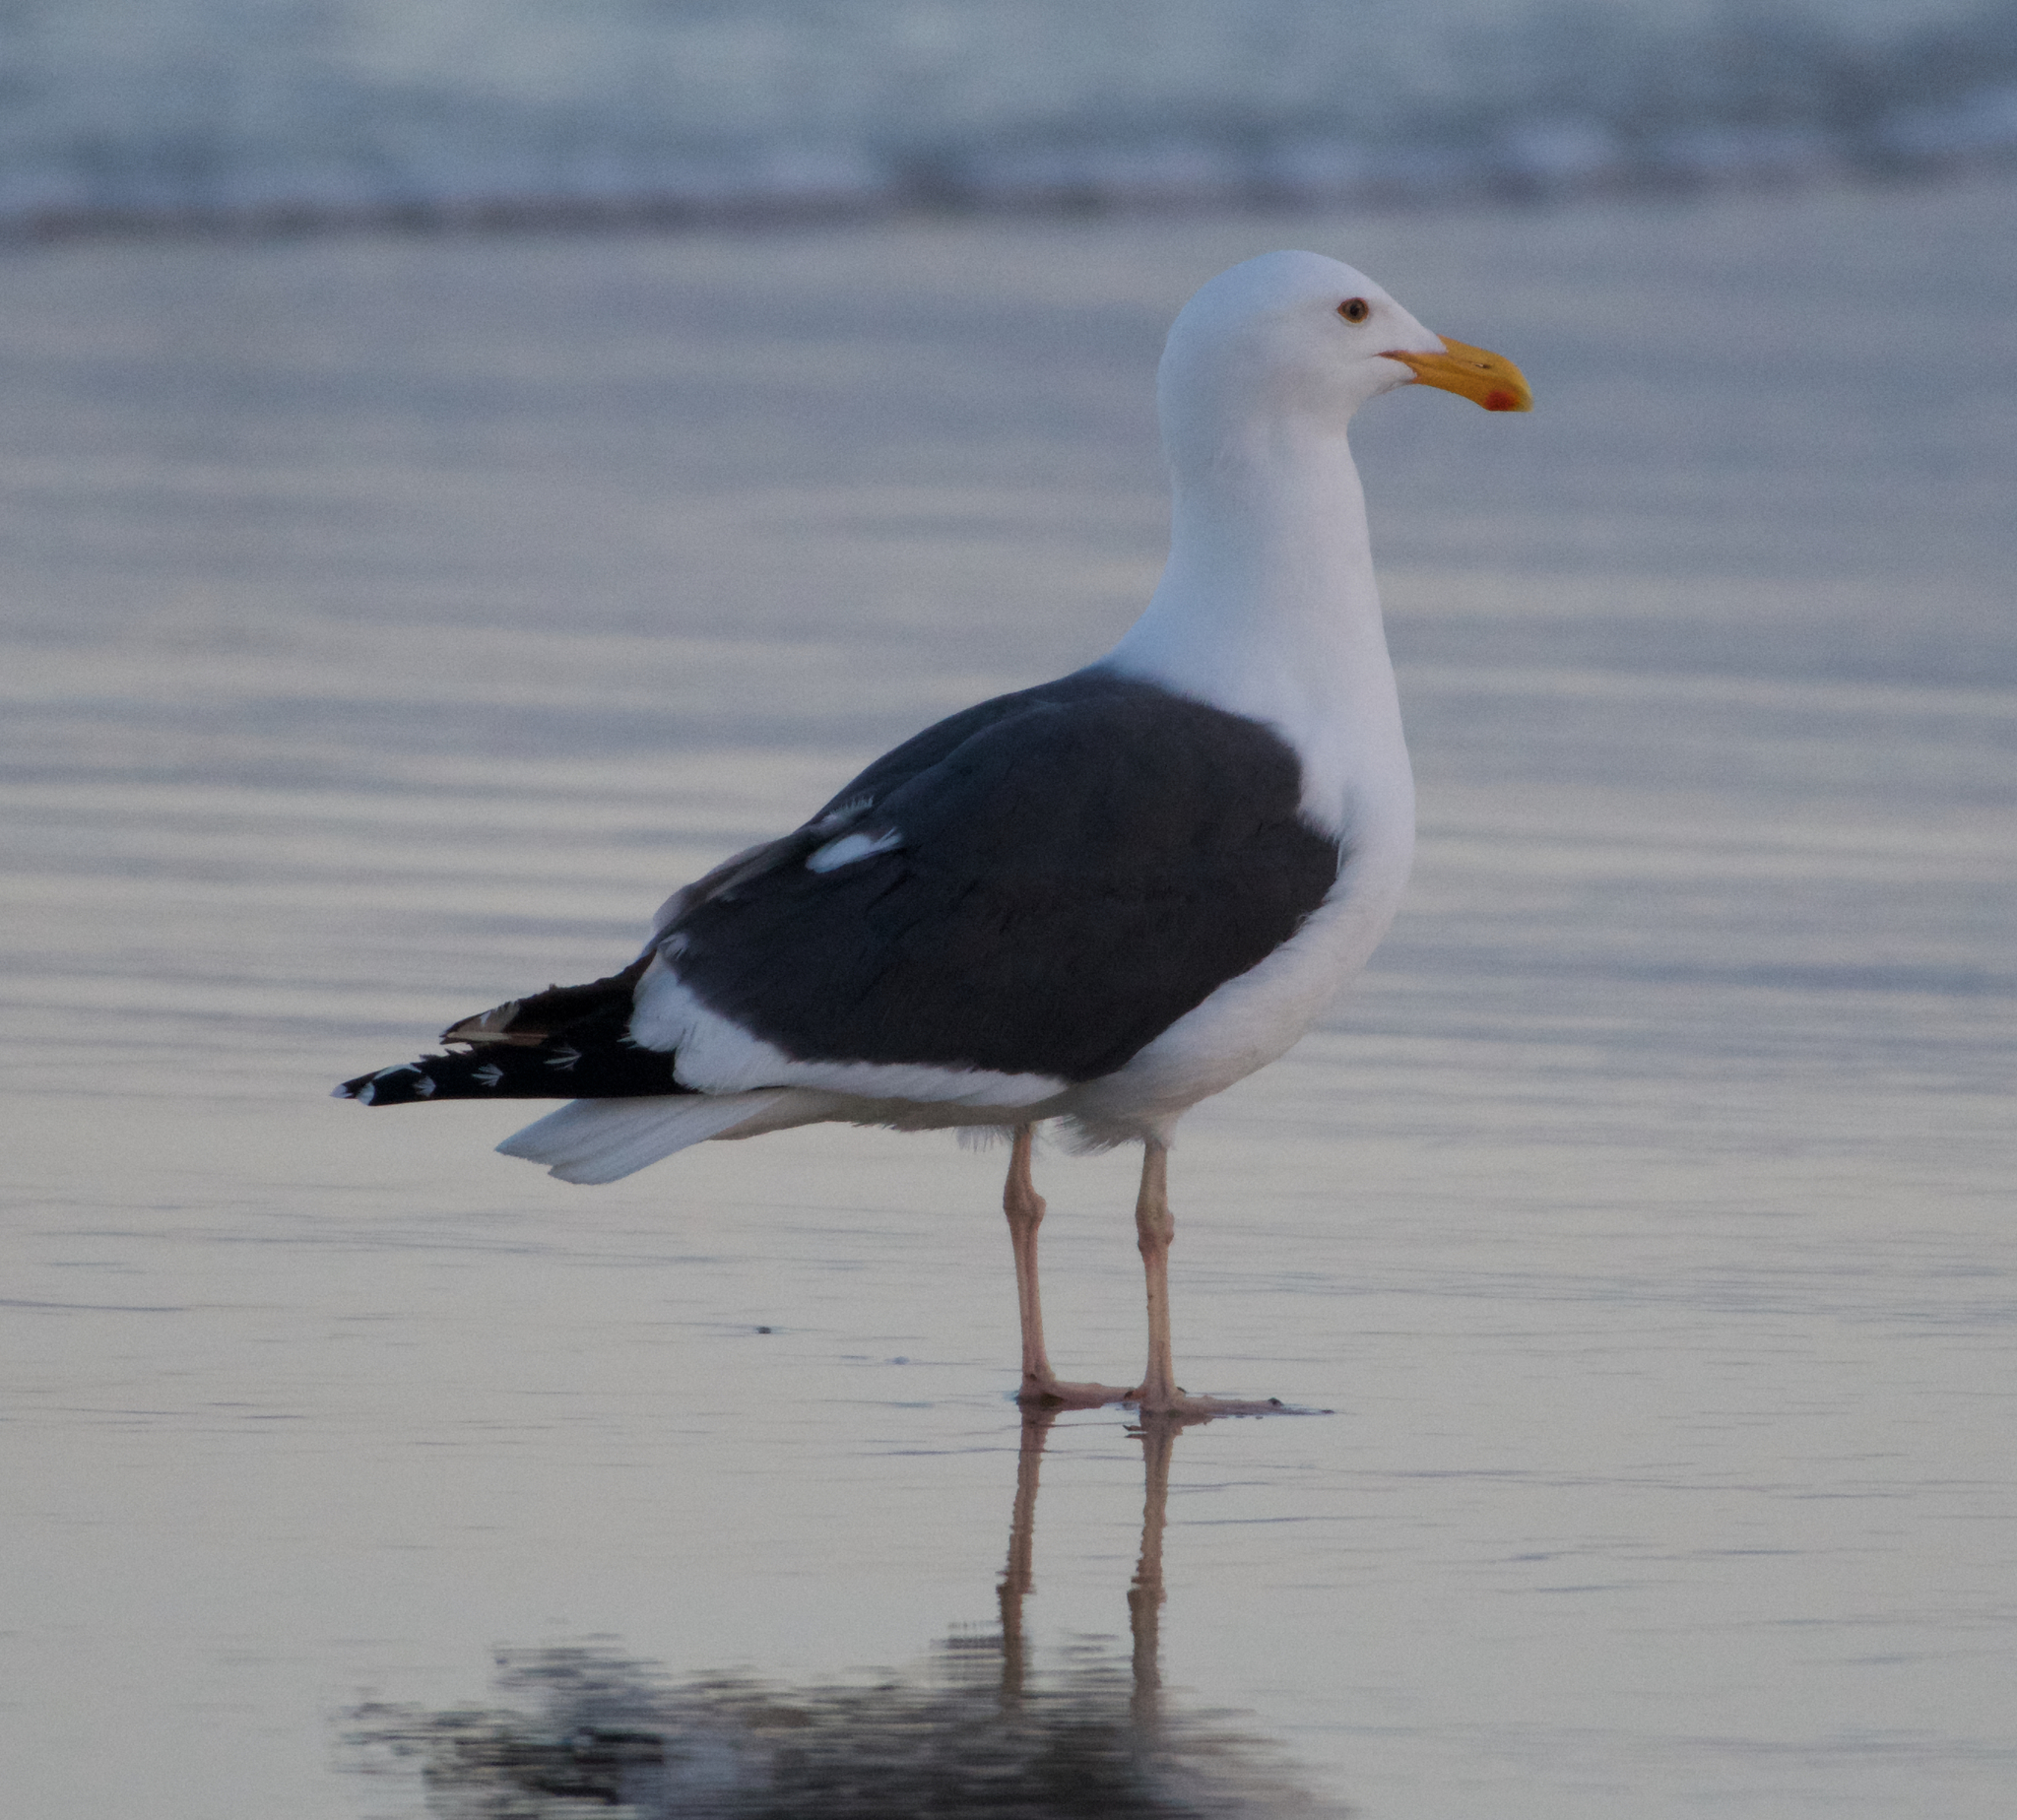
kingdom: Animalia
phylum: Chordata
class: Aves
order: Charadriiformes
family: Laridae
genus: Larus
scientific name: Larus occidentalis
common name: Western gull
